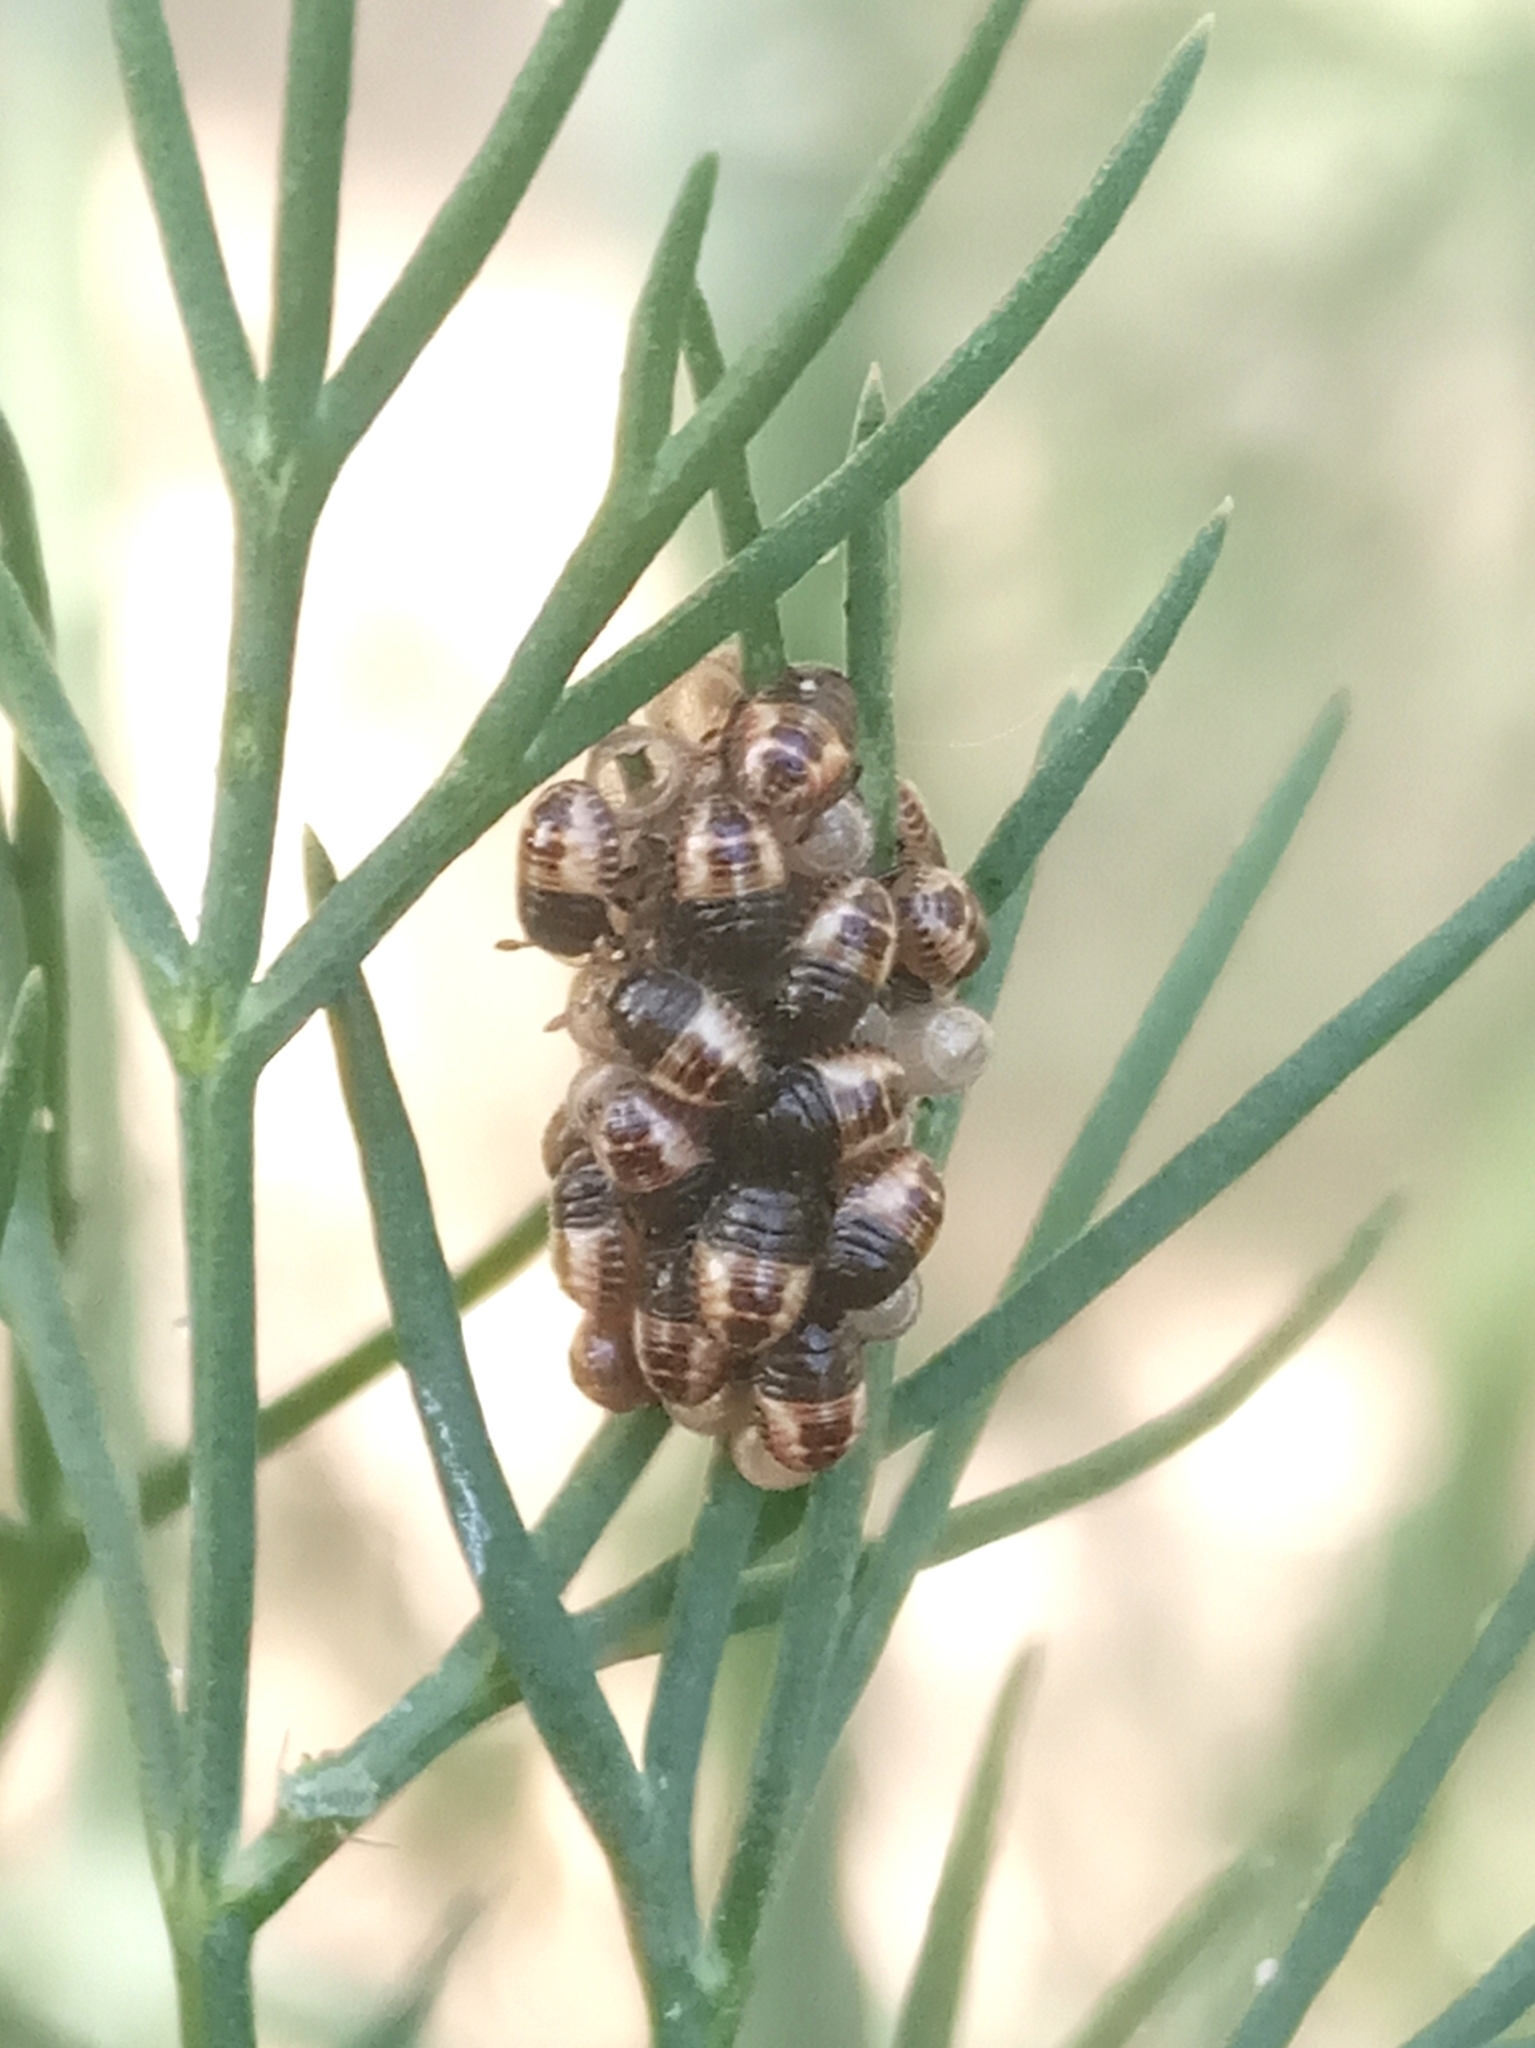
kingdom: Animalia
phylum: Arthropoda
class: Insecta
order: Hemiptera
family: Pentatomidae
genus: Dolycoris
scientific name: Dolycoris baccarum
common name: Sloe bug
